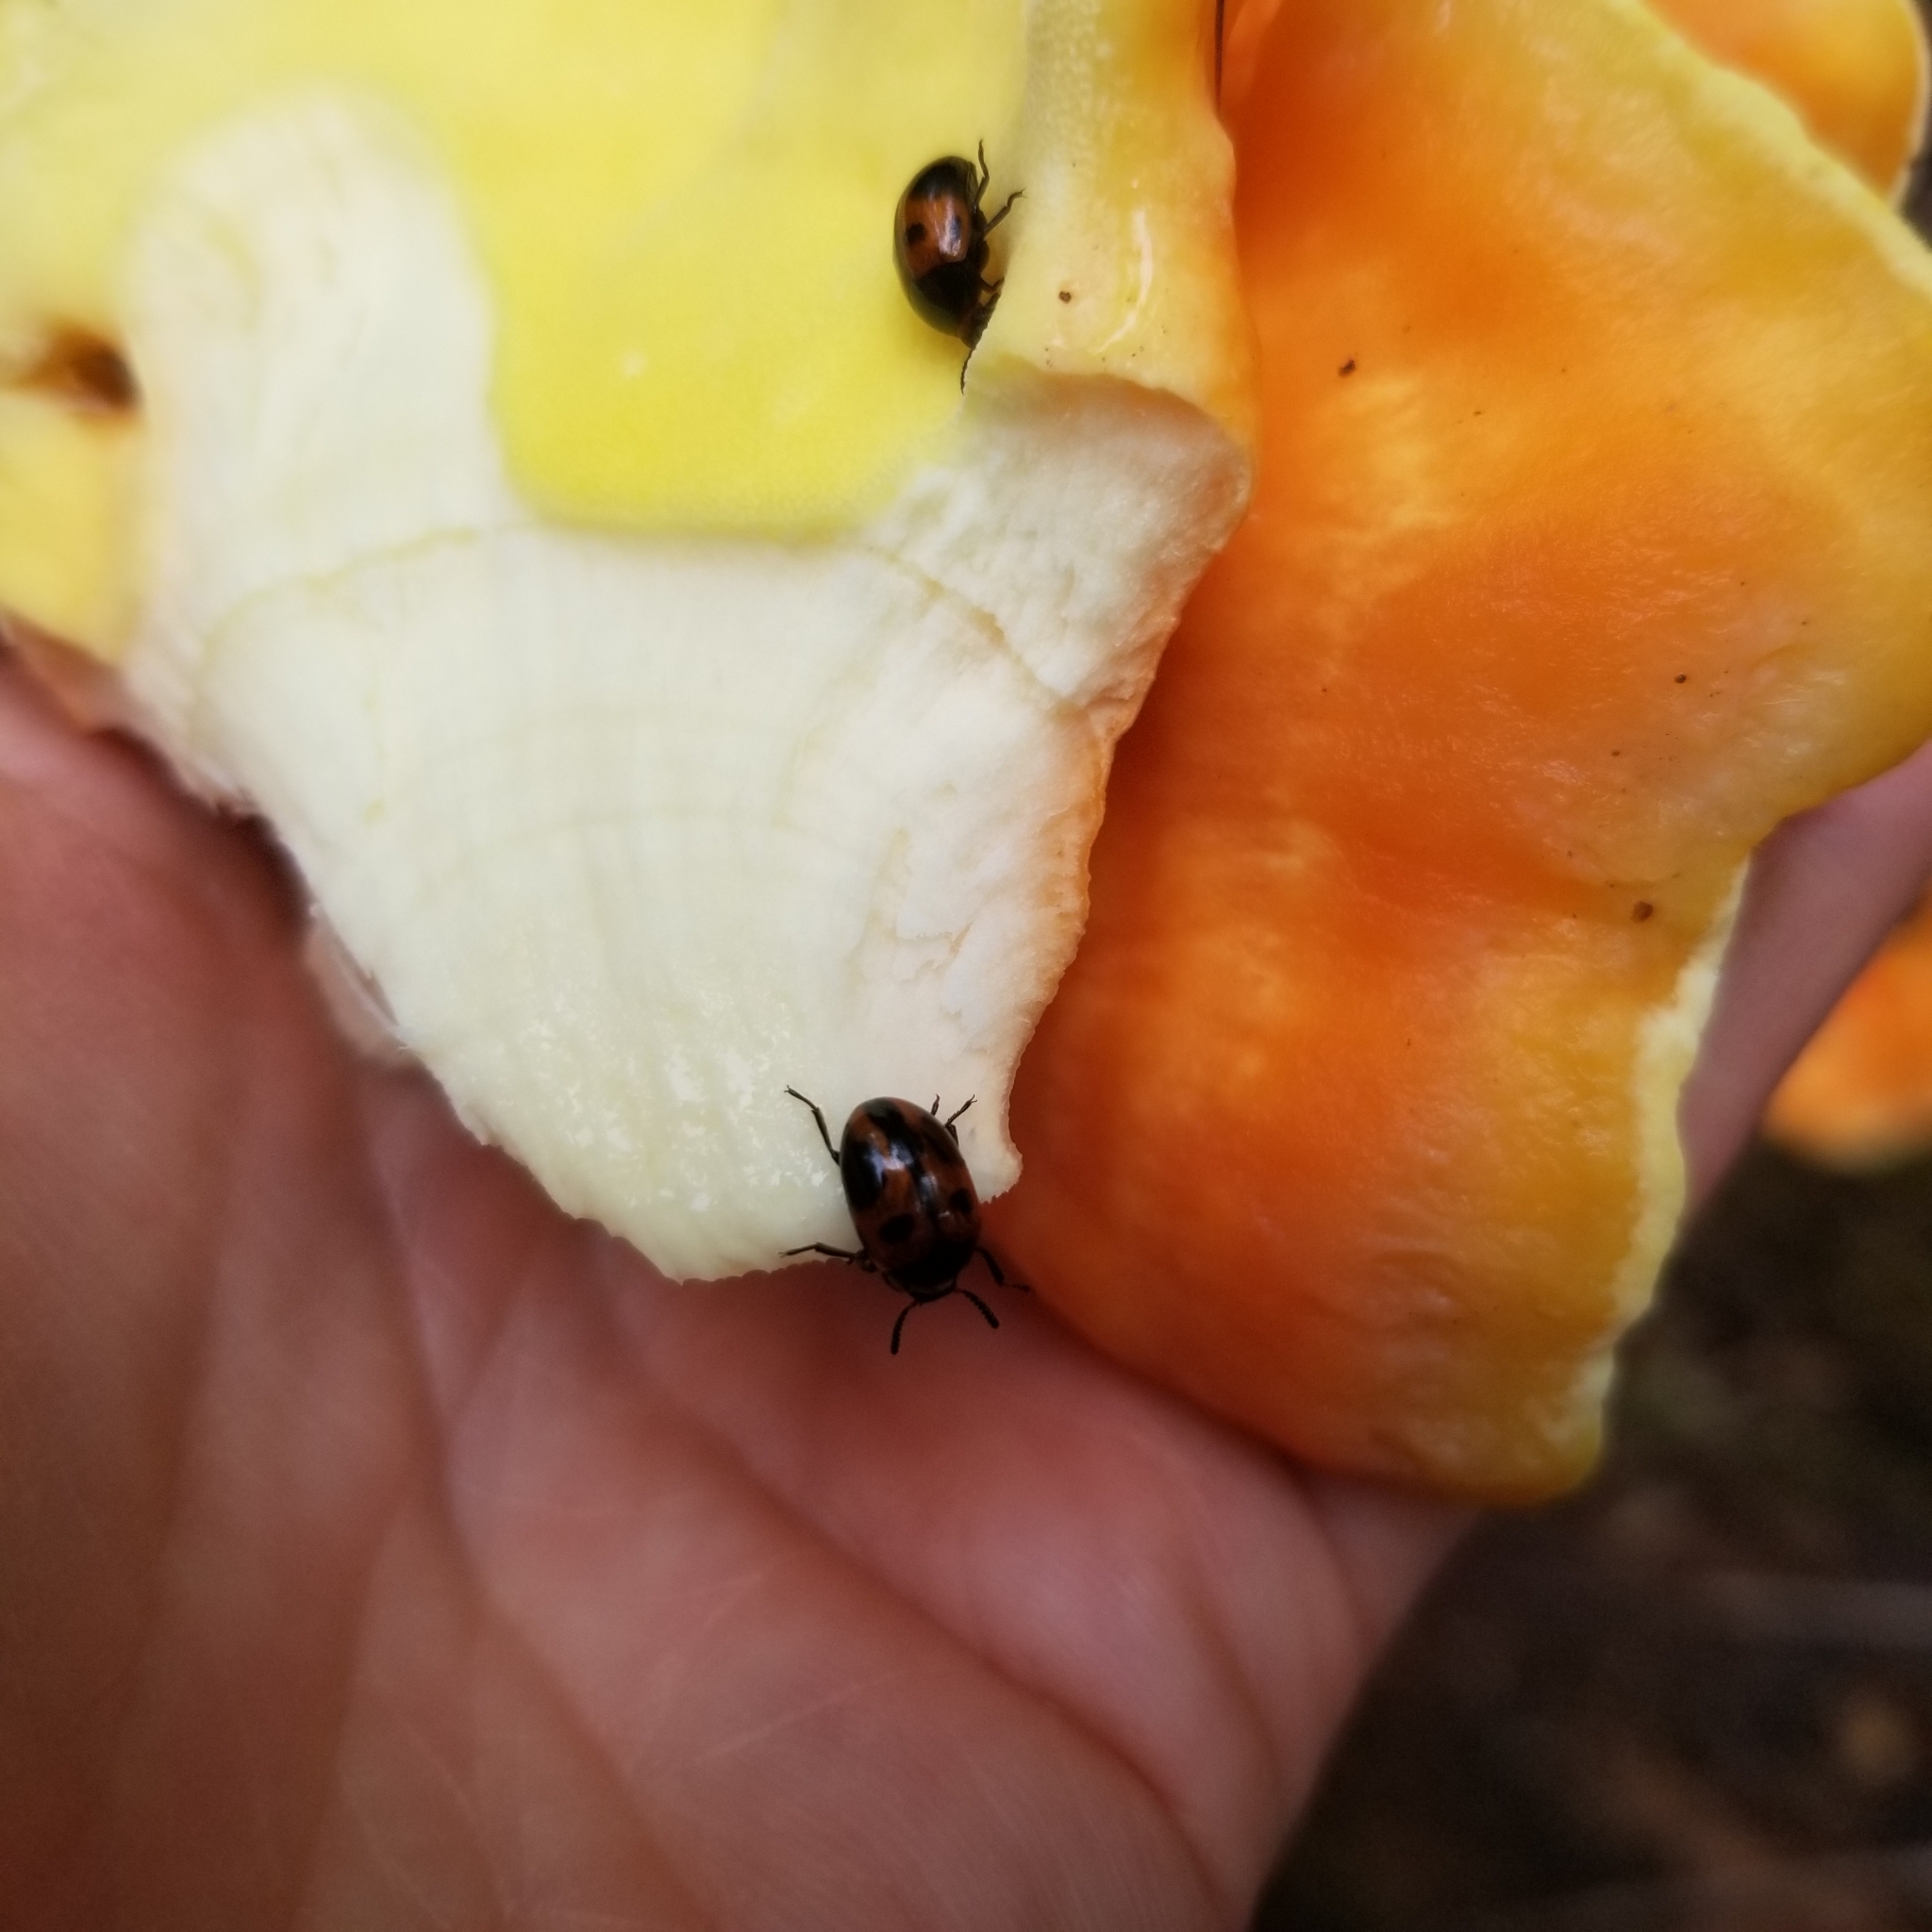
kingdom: Fungi
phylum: Basidiomycota
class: Agaricomycetes
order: Polyporales
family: Laetiporaceae
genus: Laetiporus
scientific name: Laetiporus sulphureus
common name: Chicken of the woods
